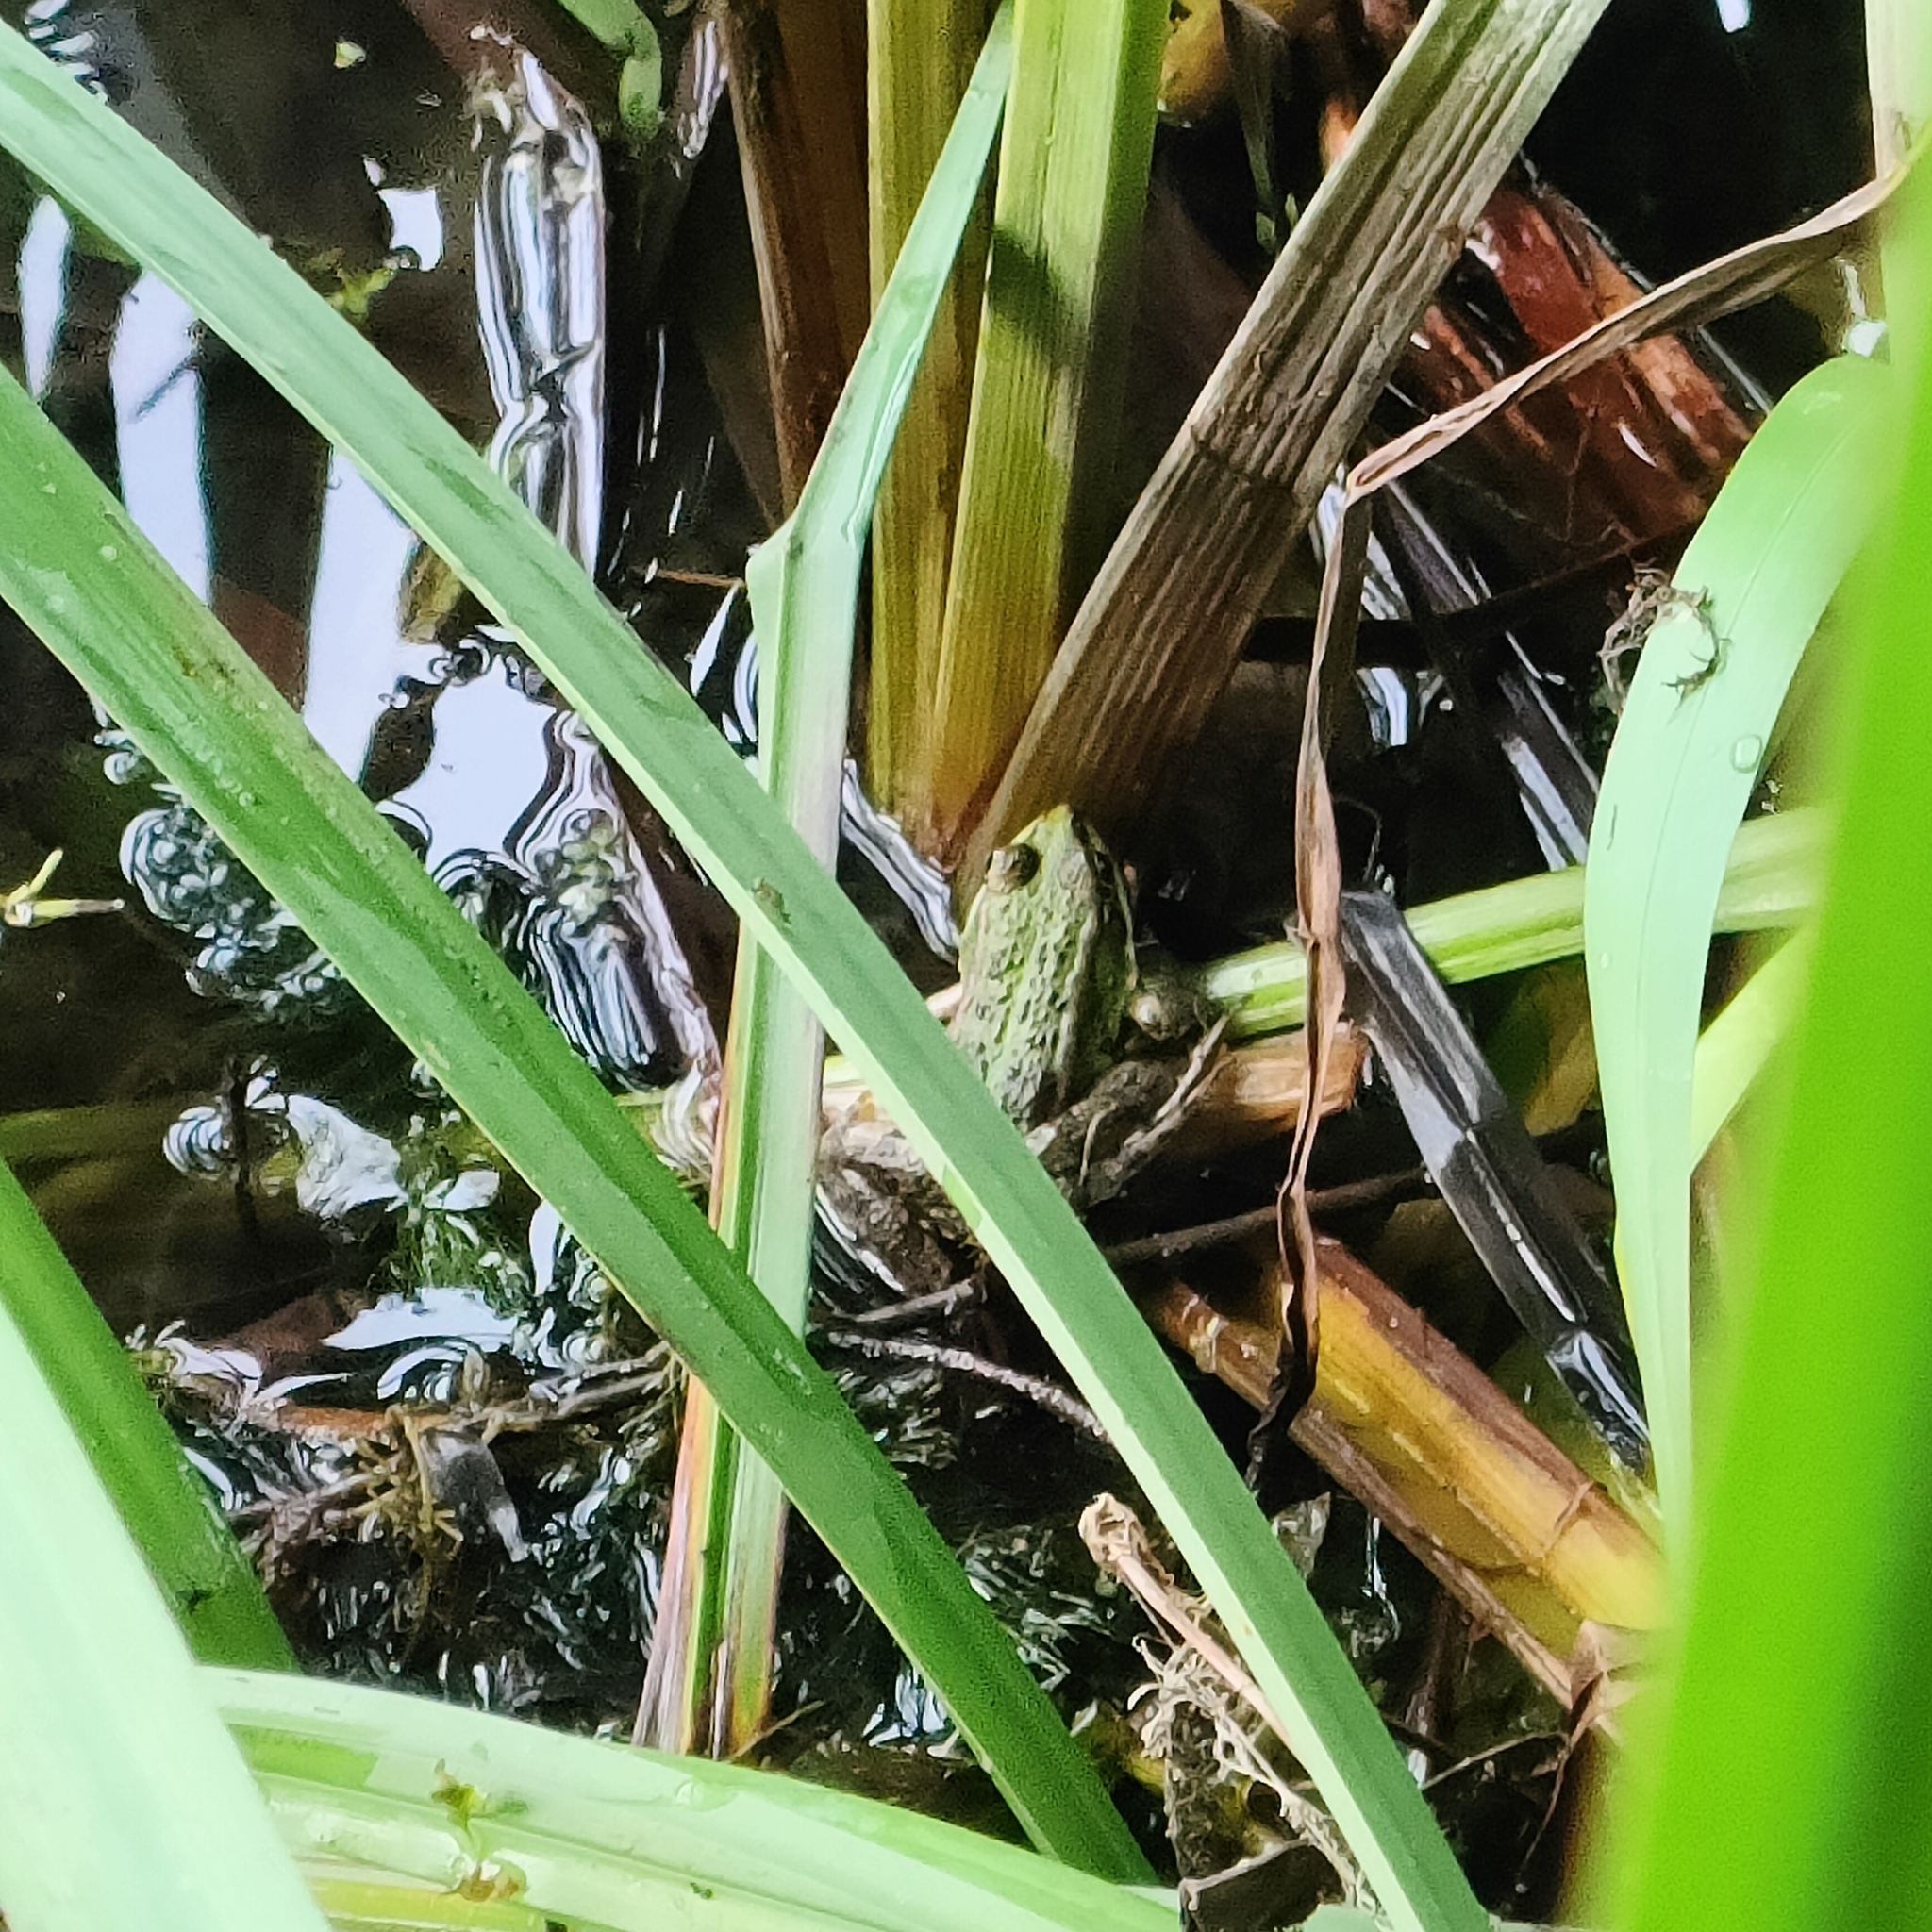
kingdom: Animalia
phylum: Chordata
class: Amphibia
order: Anura
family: Ranidae
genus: Pelophylax
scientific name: Pelophylax ridibundus
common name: Marsh frog
